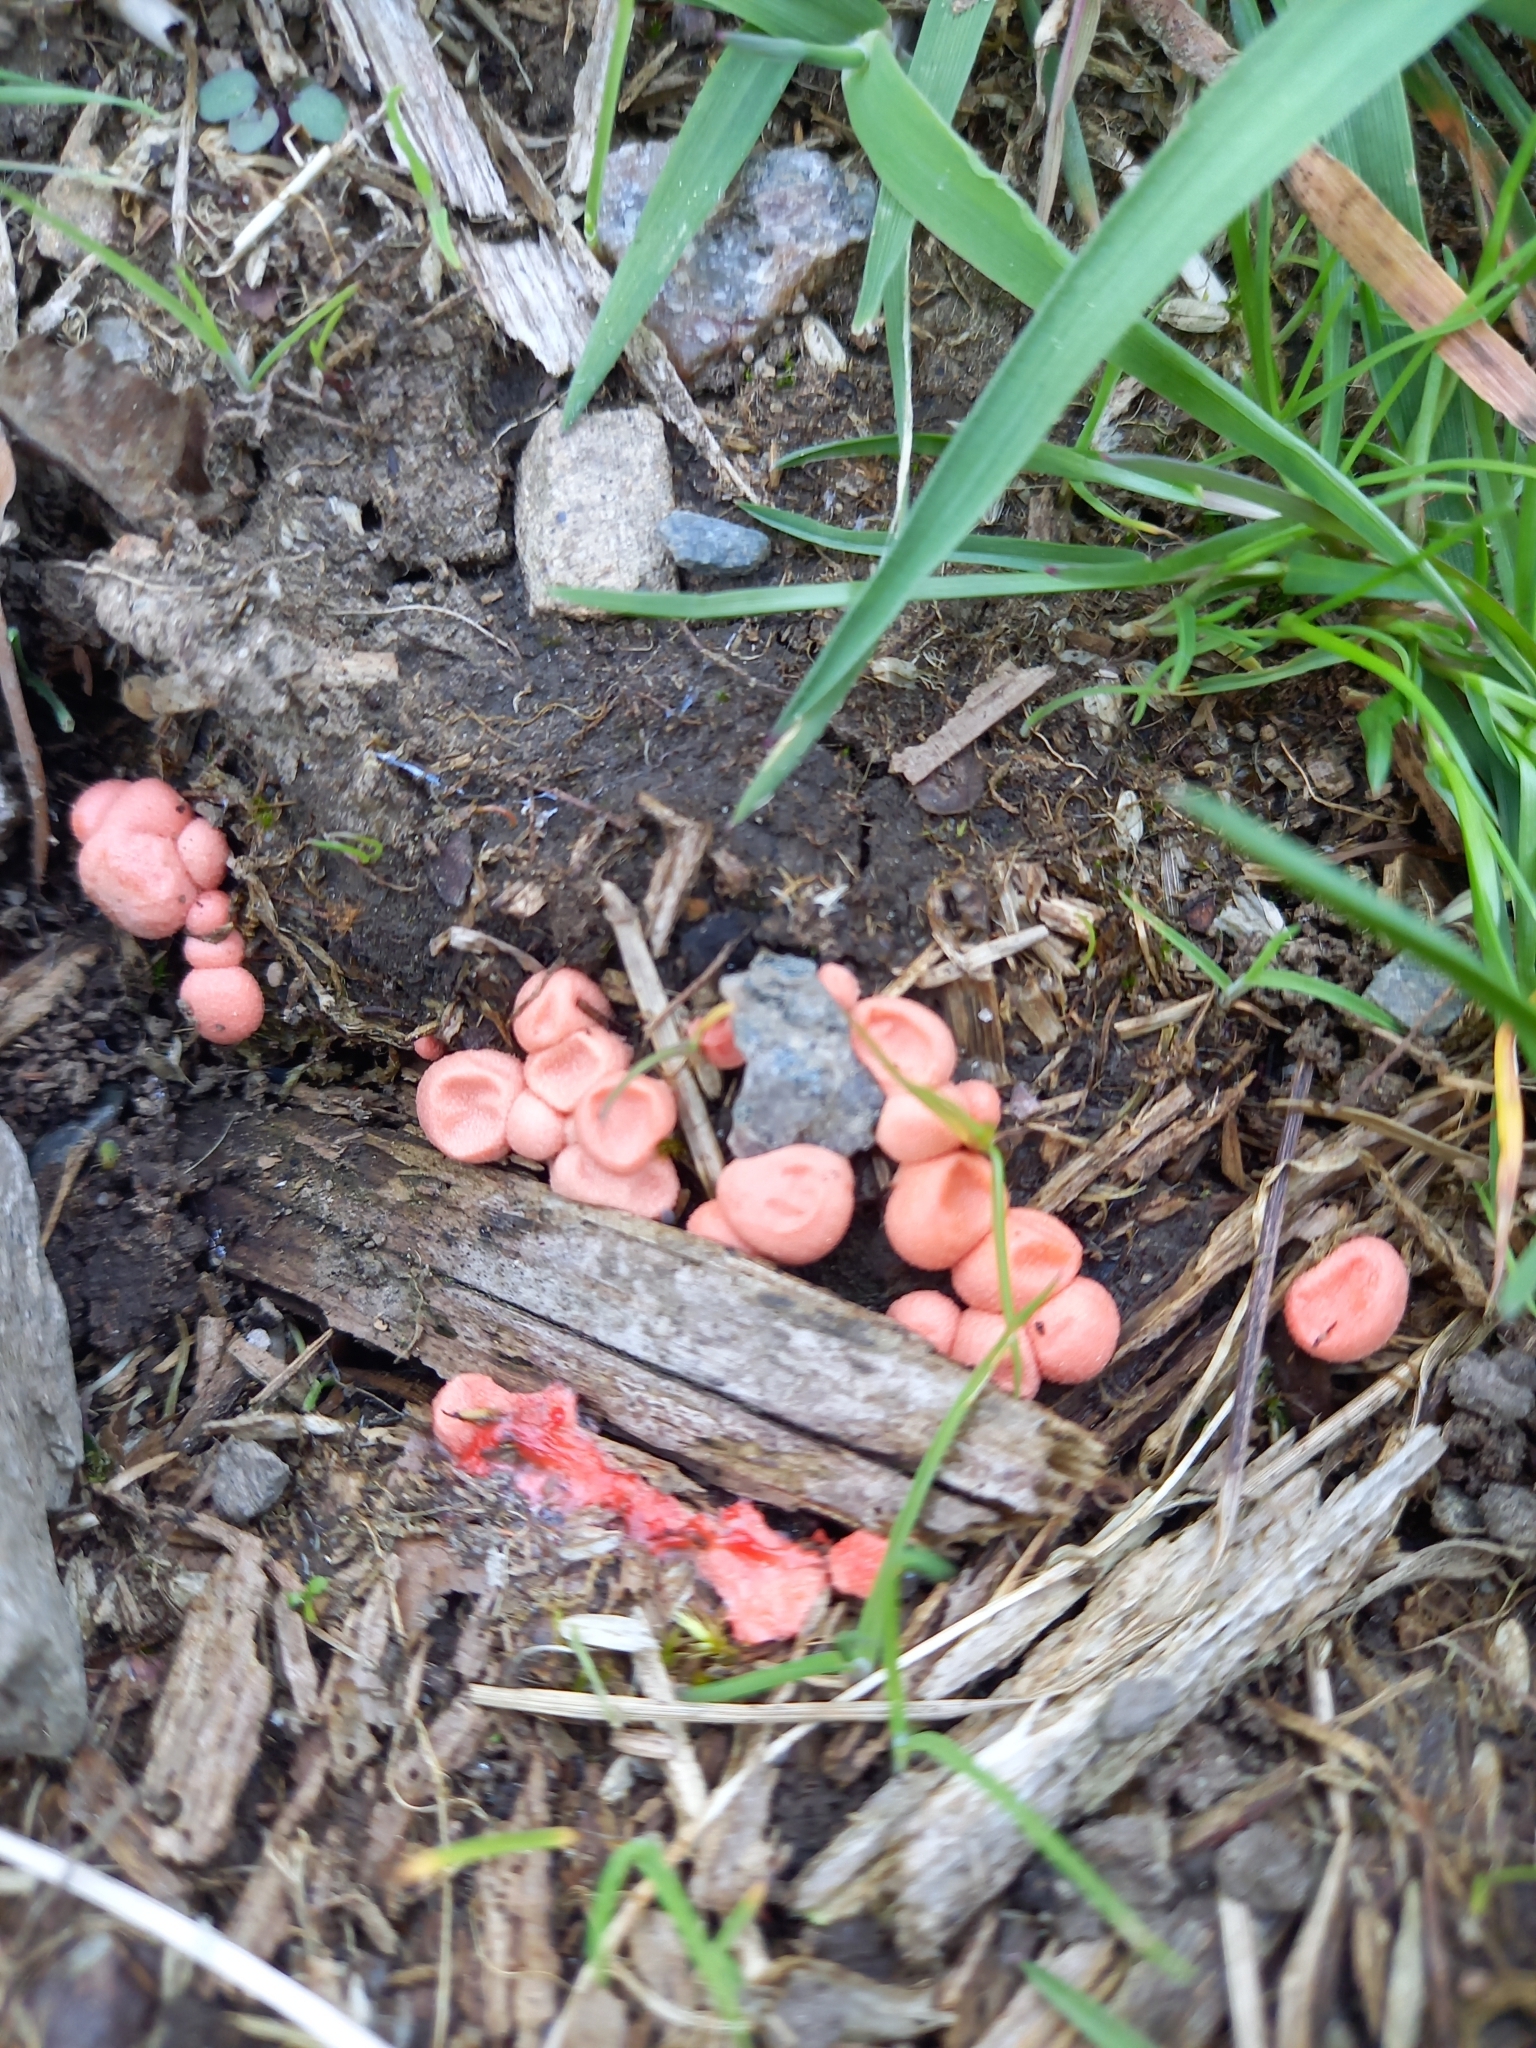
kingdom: Protozoa
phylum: Mycetozoa
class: Myxomycetes
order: Cribrariales
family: Tubiferaceae
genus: Lycogala
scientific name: Lycogala epidendrum
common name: Wolf's milk
